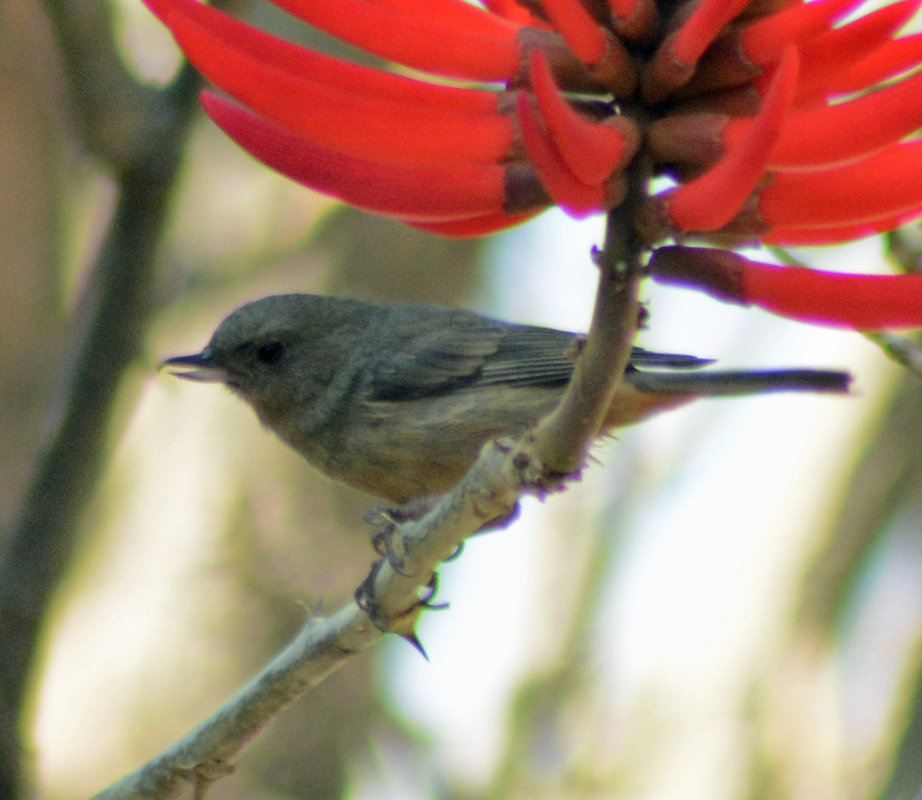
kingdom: Animalia
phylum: Chordata
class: Aves
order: Passeriformes
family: Thraupidae
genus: Diglossa
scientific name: Diglossa baritula
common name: Cinnamon-bellied flowerpiercer
